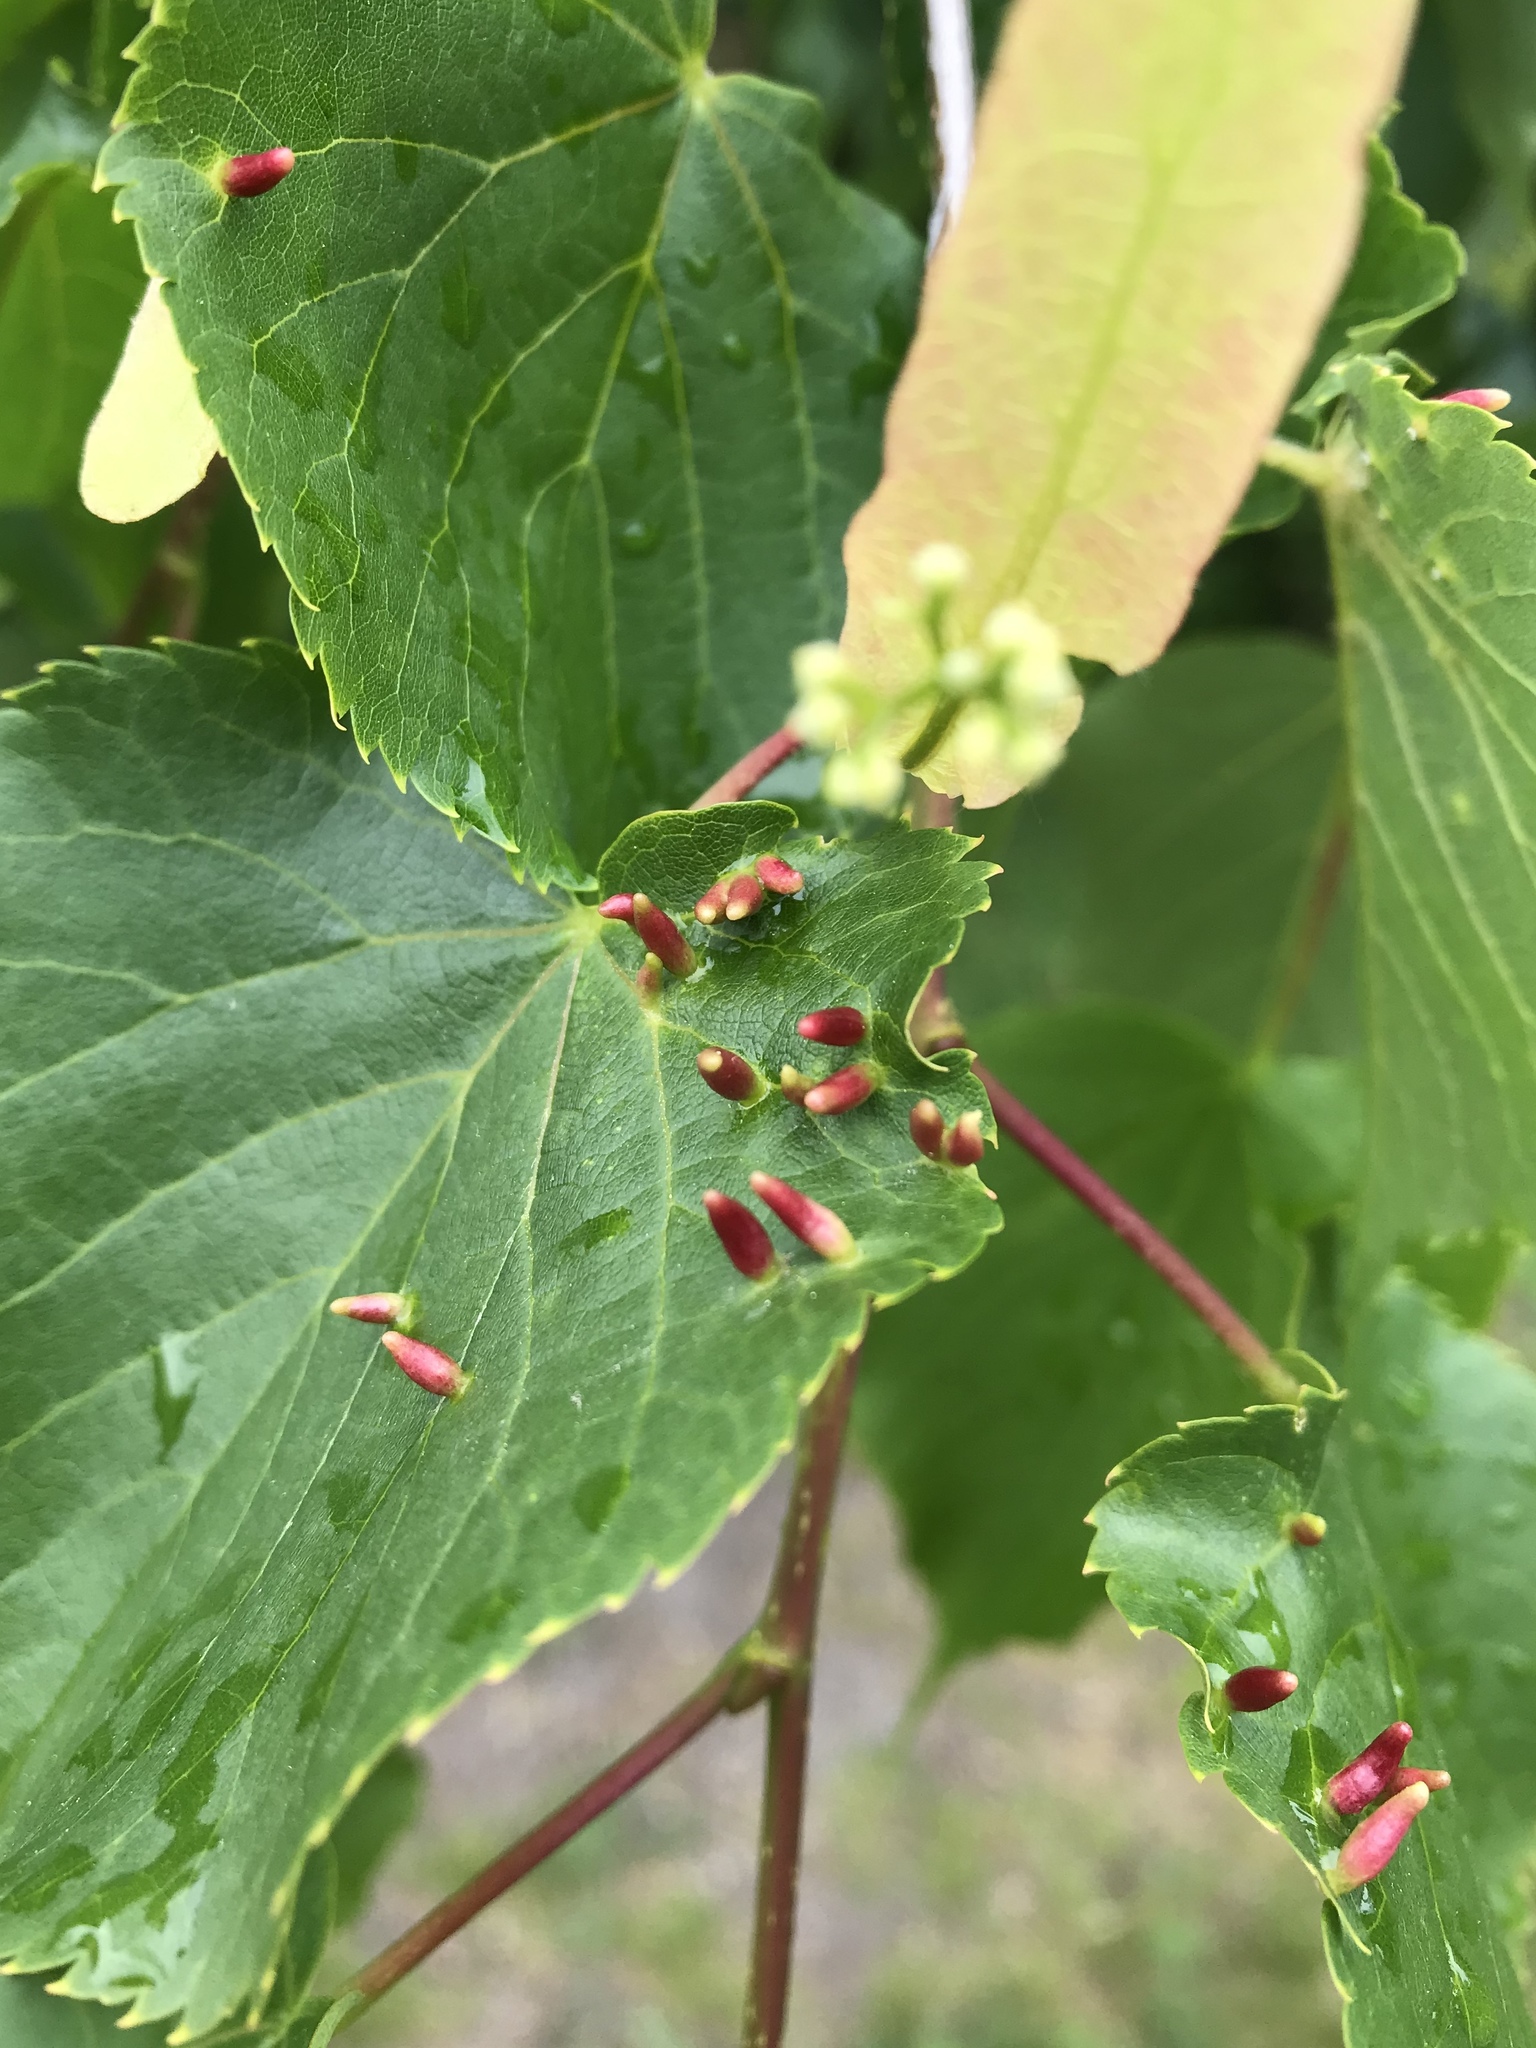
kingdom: Animalia
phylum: Arthropoda
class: Arachnida
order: Trombidiformes
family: Eriophyidae
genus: Eriophyes
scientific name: Eriophyes tiliae
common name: Red nail gall mite
